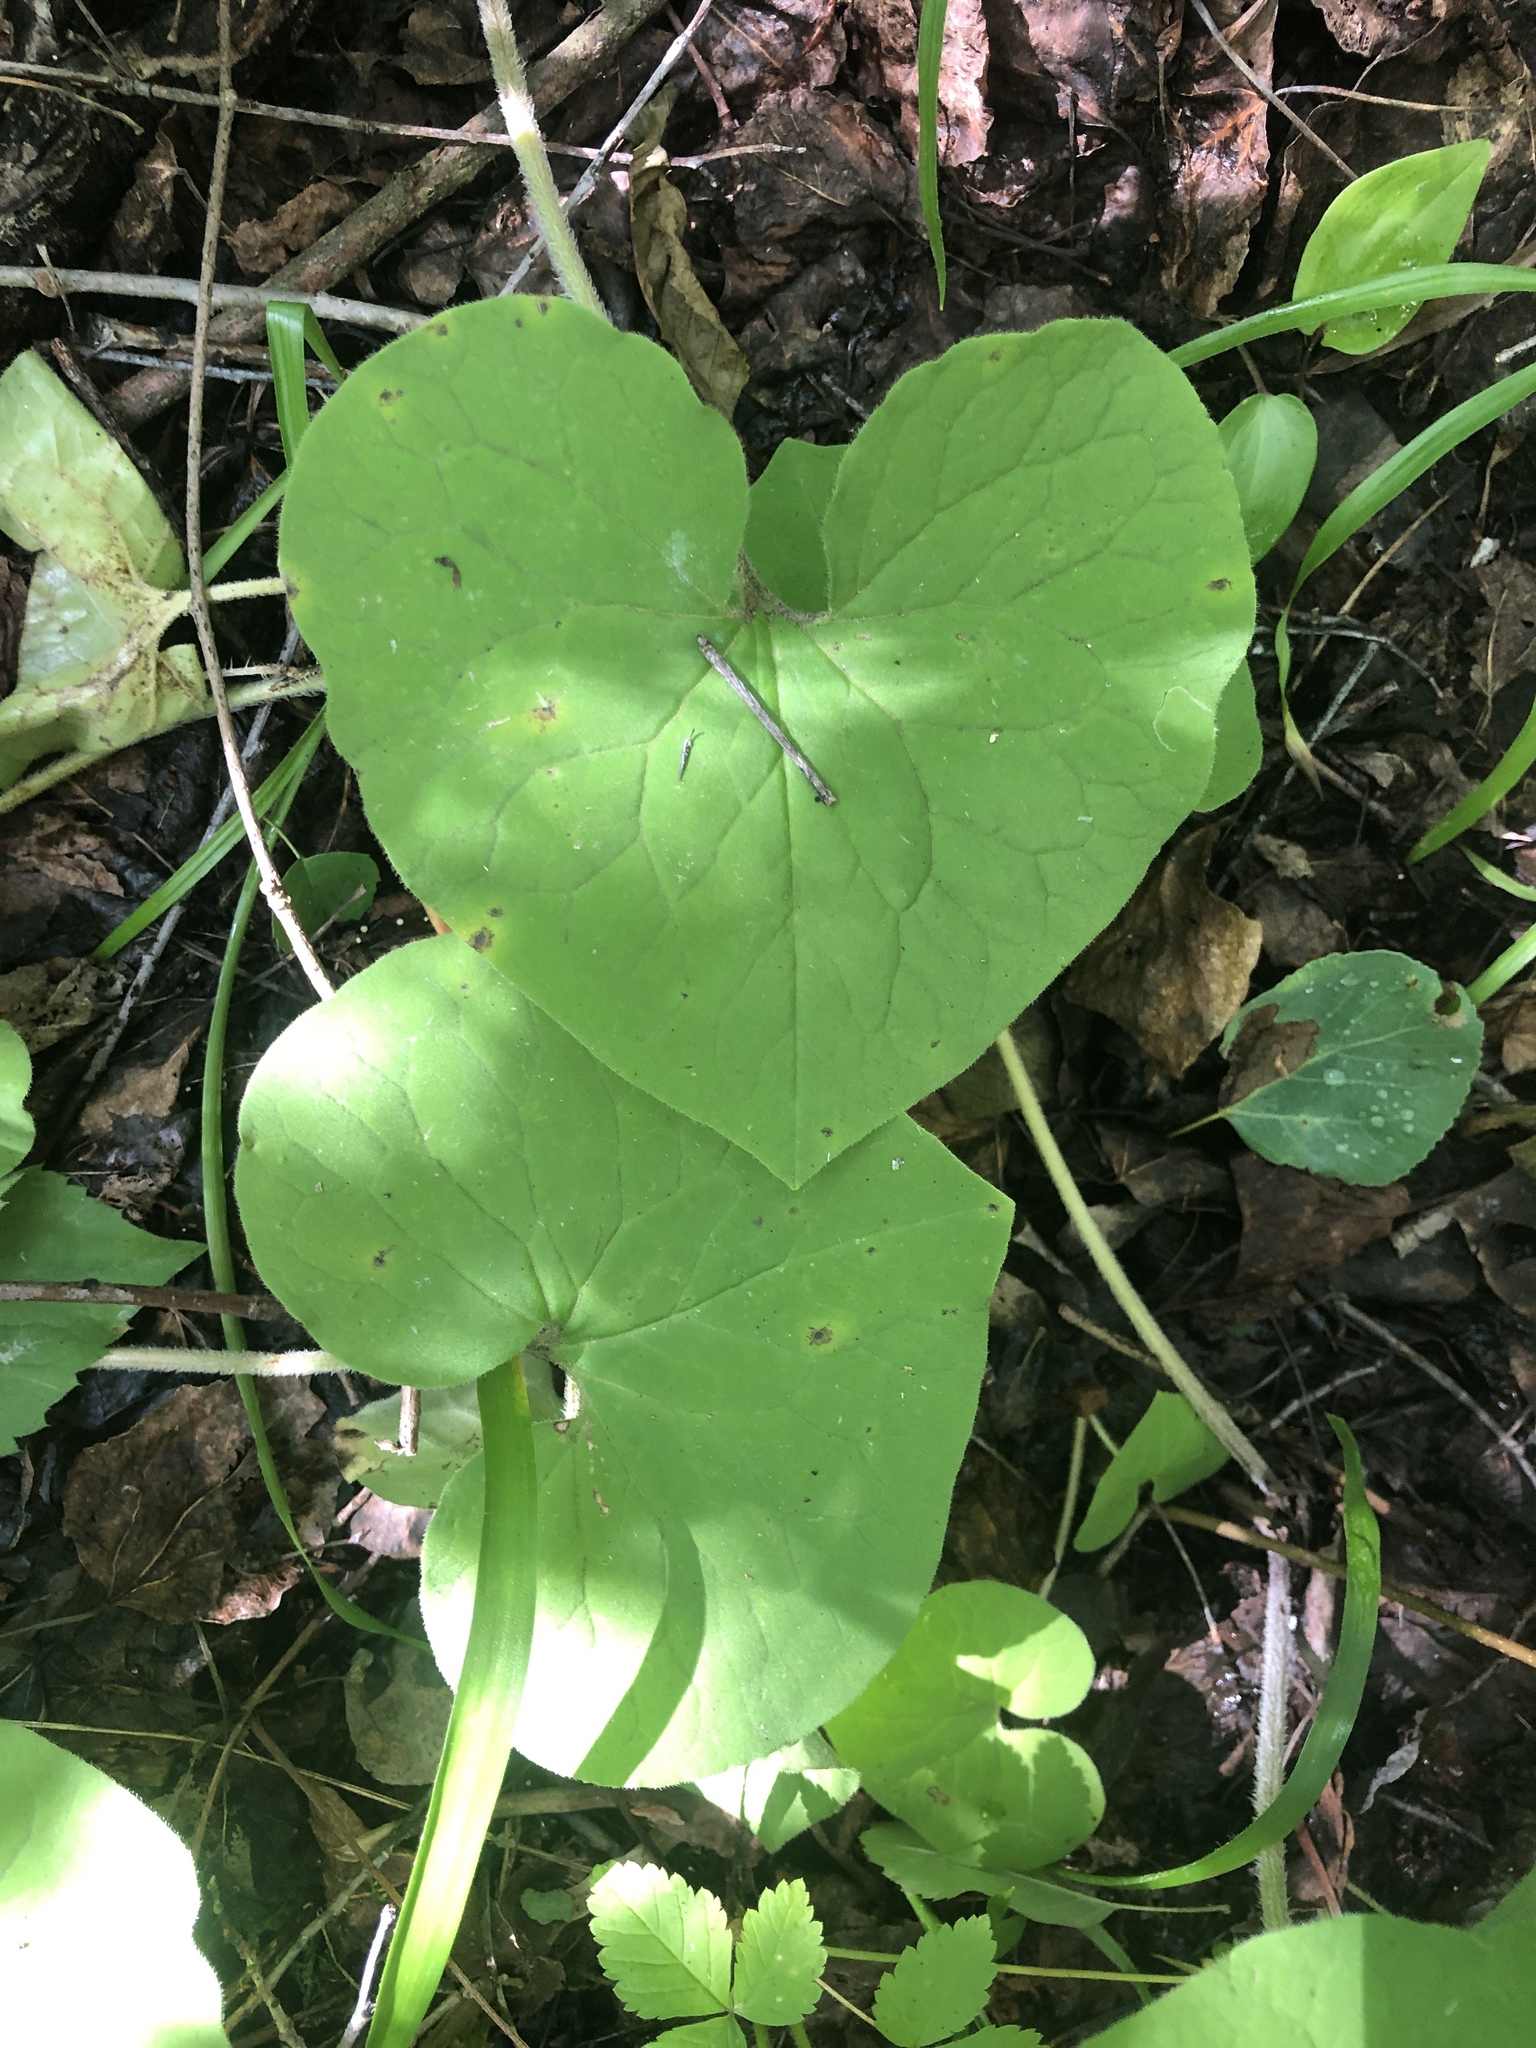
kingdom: Plantae
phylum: Tracheophyta
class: Magnoliopsida
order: Piperales
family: Aristolochiaceae
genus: Asarum
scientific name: Asarum canadense
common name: Wild ginger
